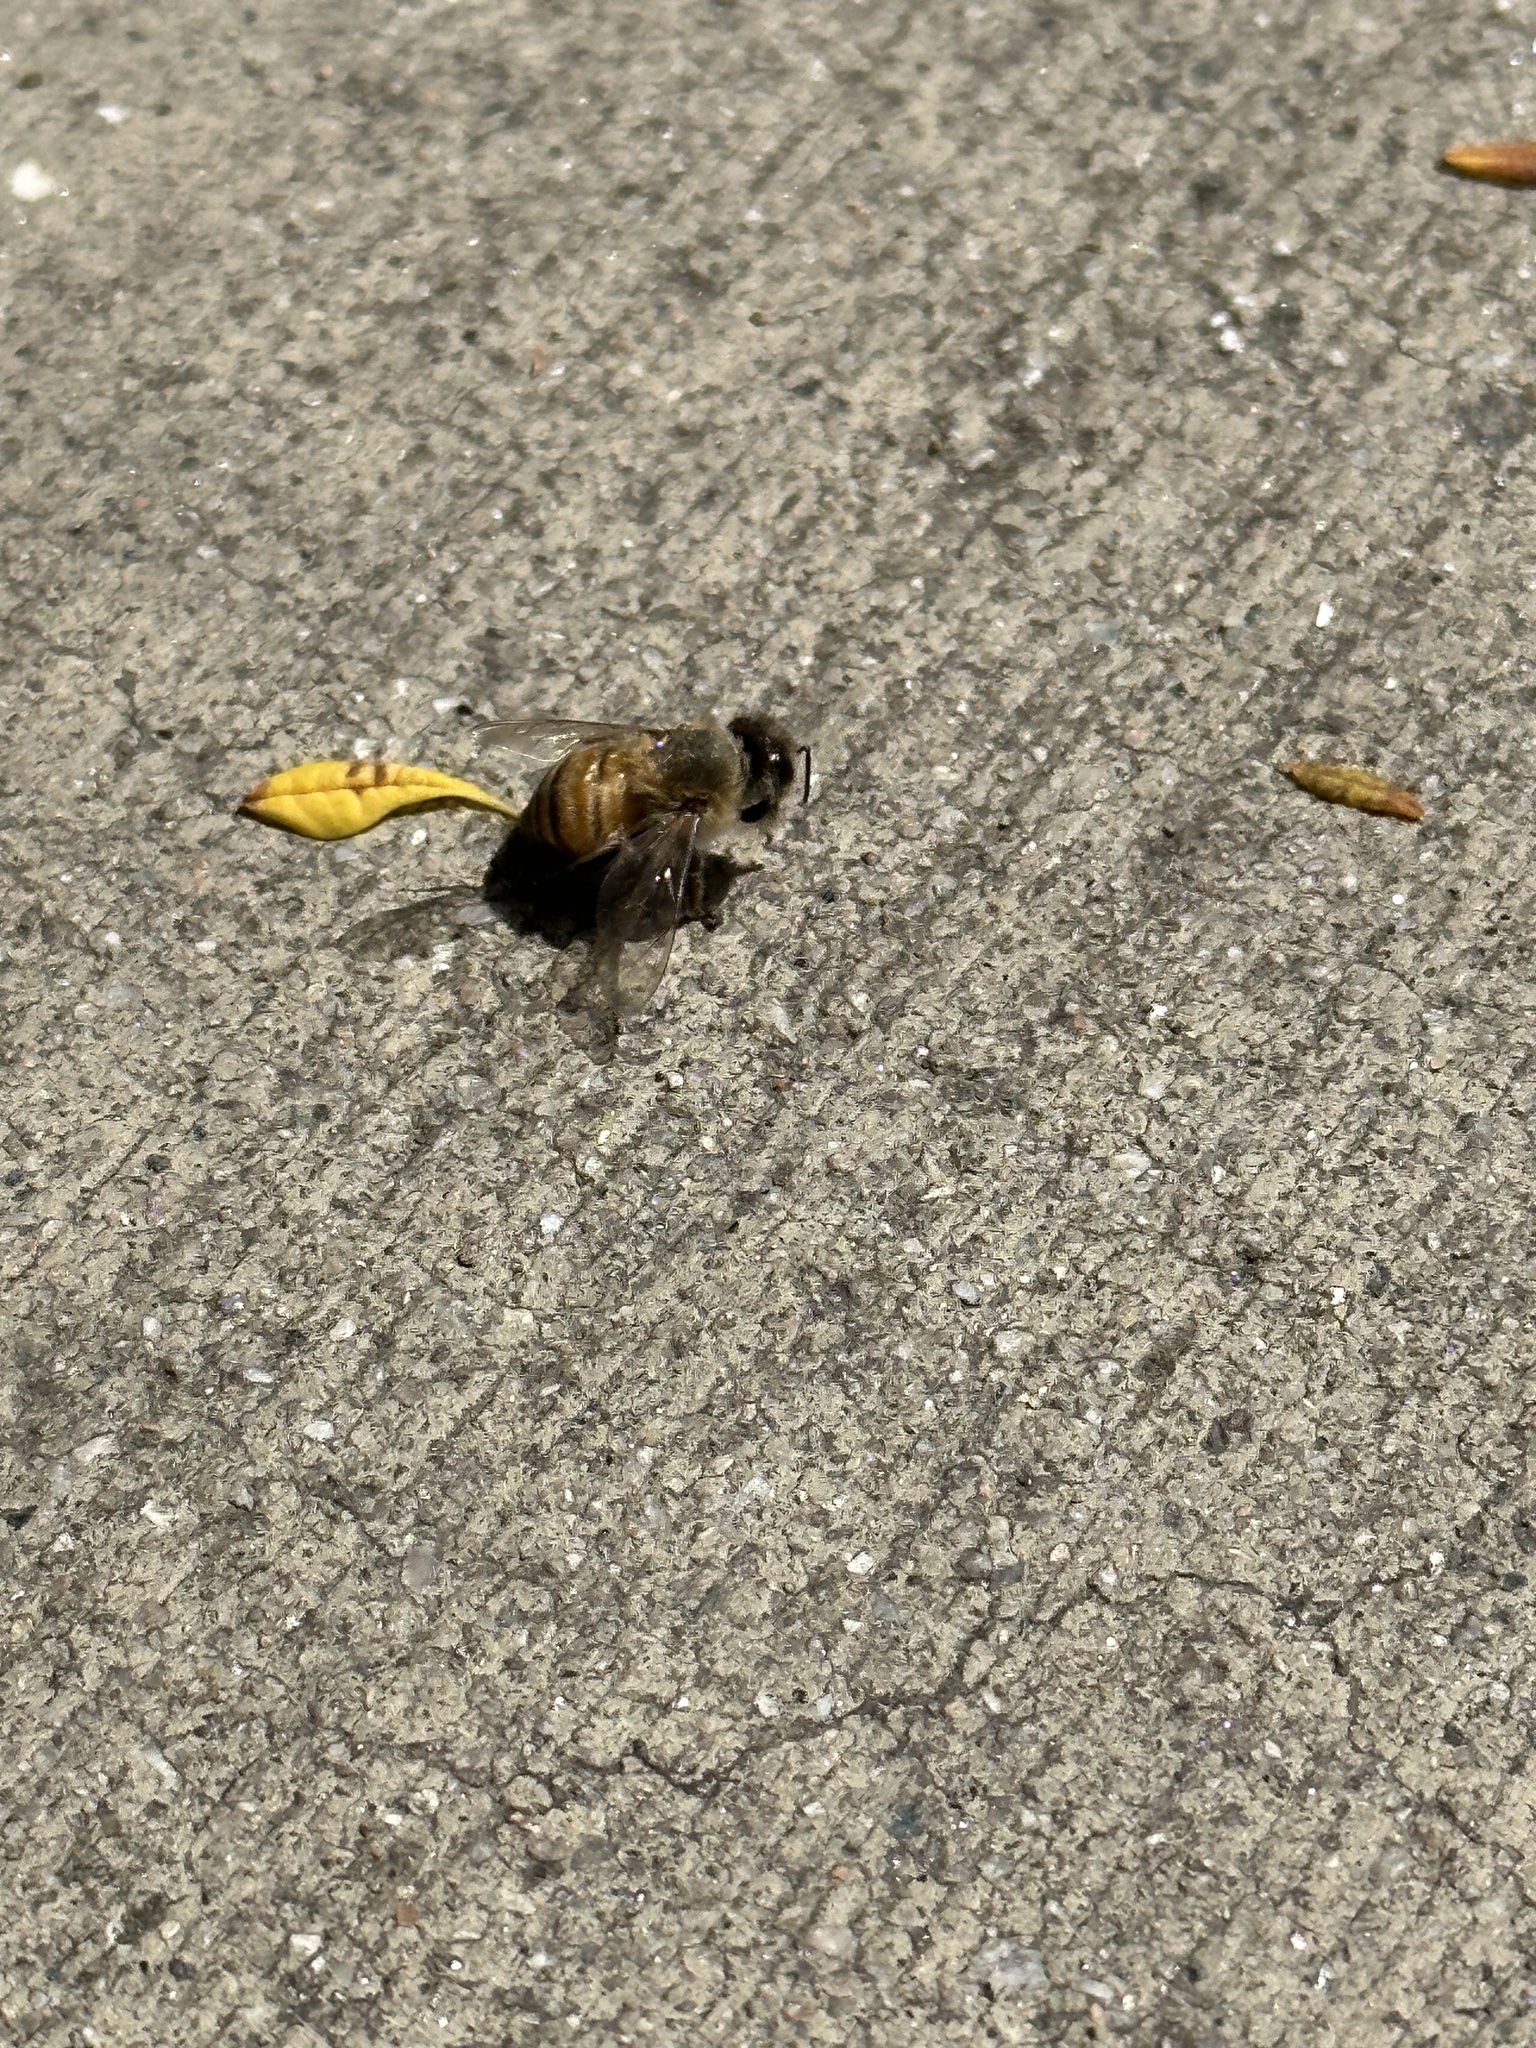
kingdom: Animalia
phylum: Arthropoda
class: Insecta
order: Hymenoptera
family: Apidae
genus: Apis
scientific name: Apis mellifera
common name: Honey bee
